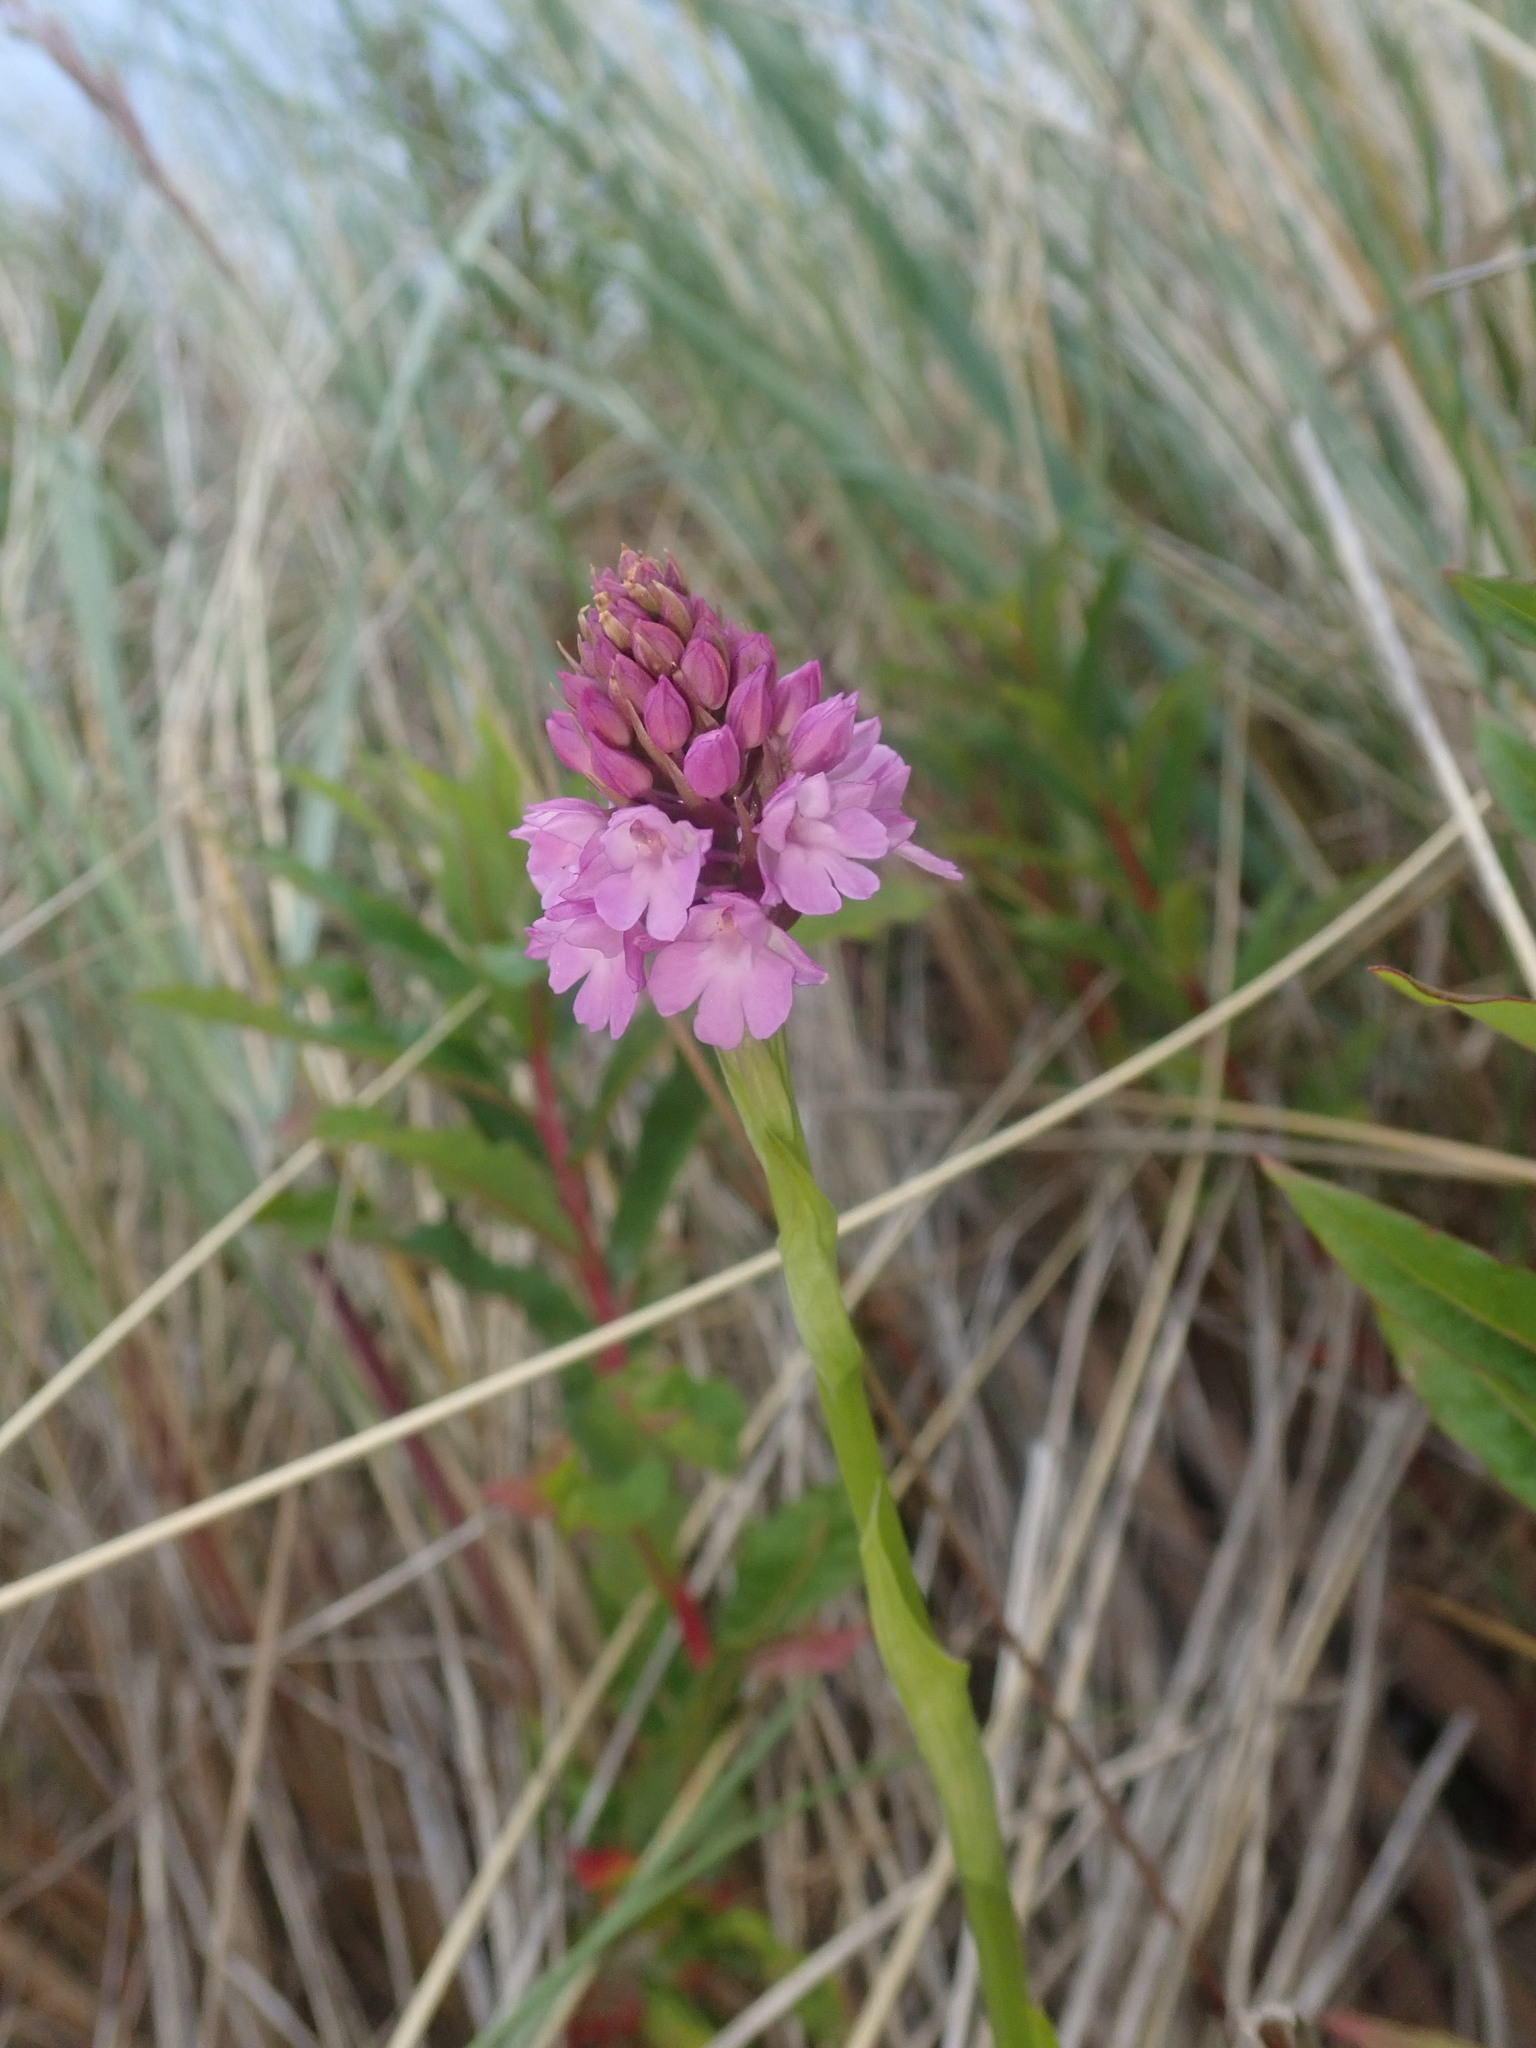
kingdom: Plantae
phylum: Tracheophyta
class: Liliopsida
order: Asparagales
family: Orchidaceae
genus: Anacamptis
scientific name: Anacamptis pyramidalis
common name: Pyramidal orchid
